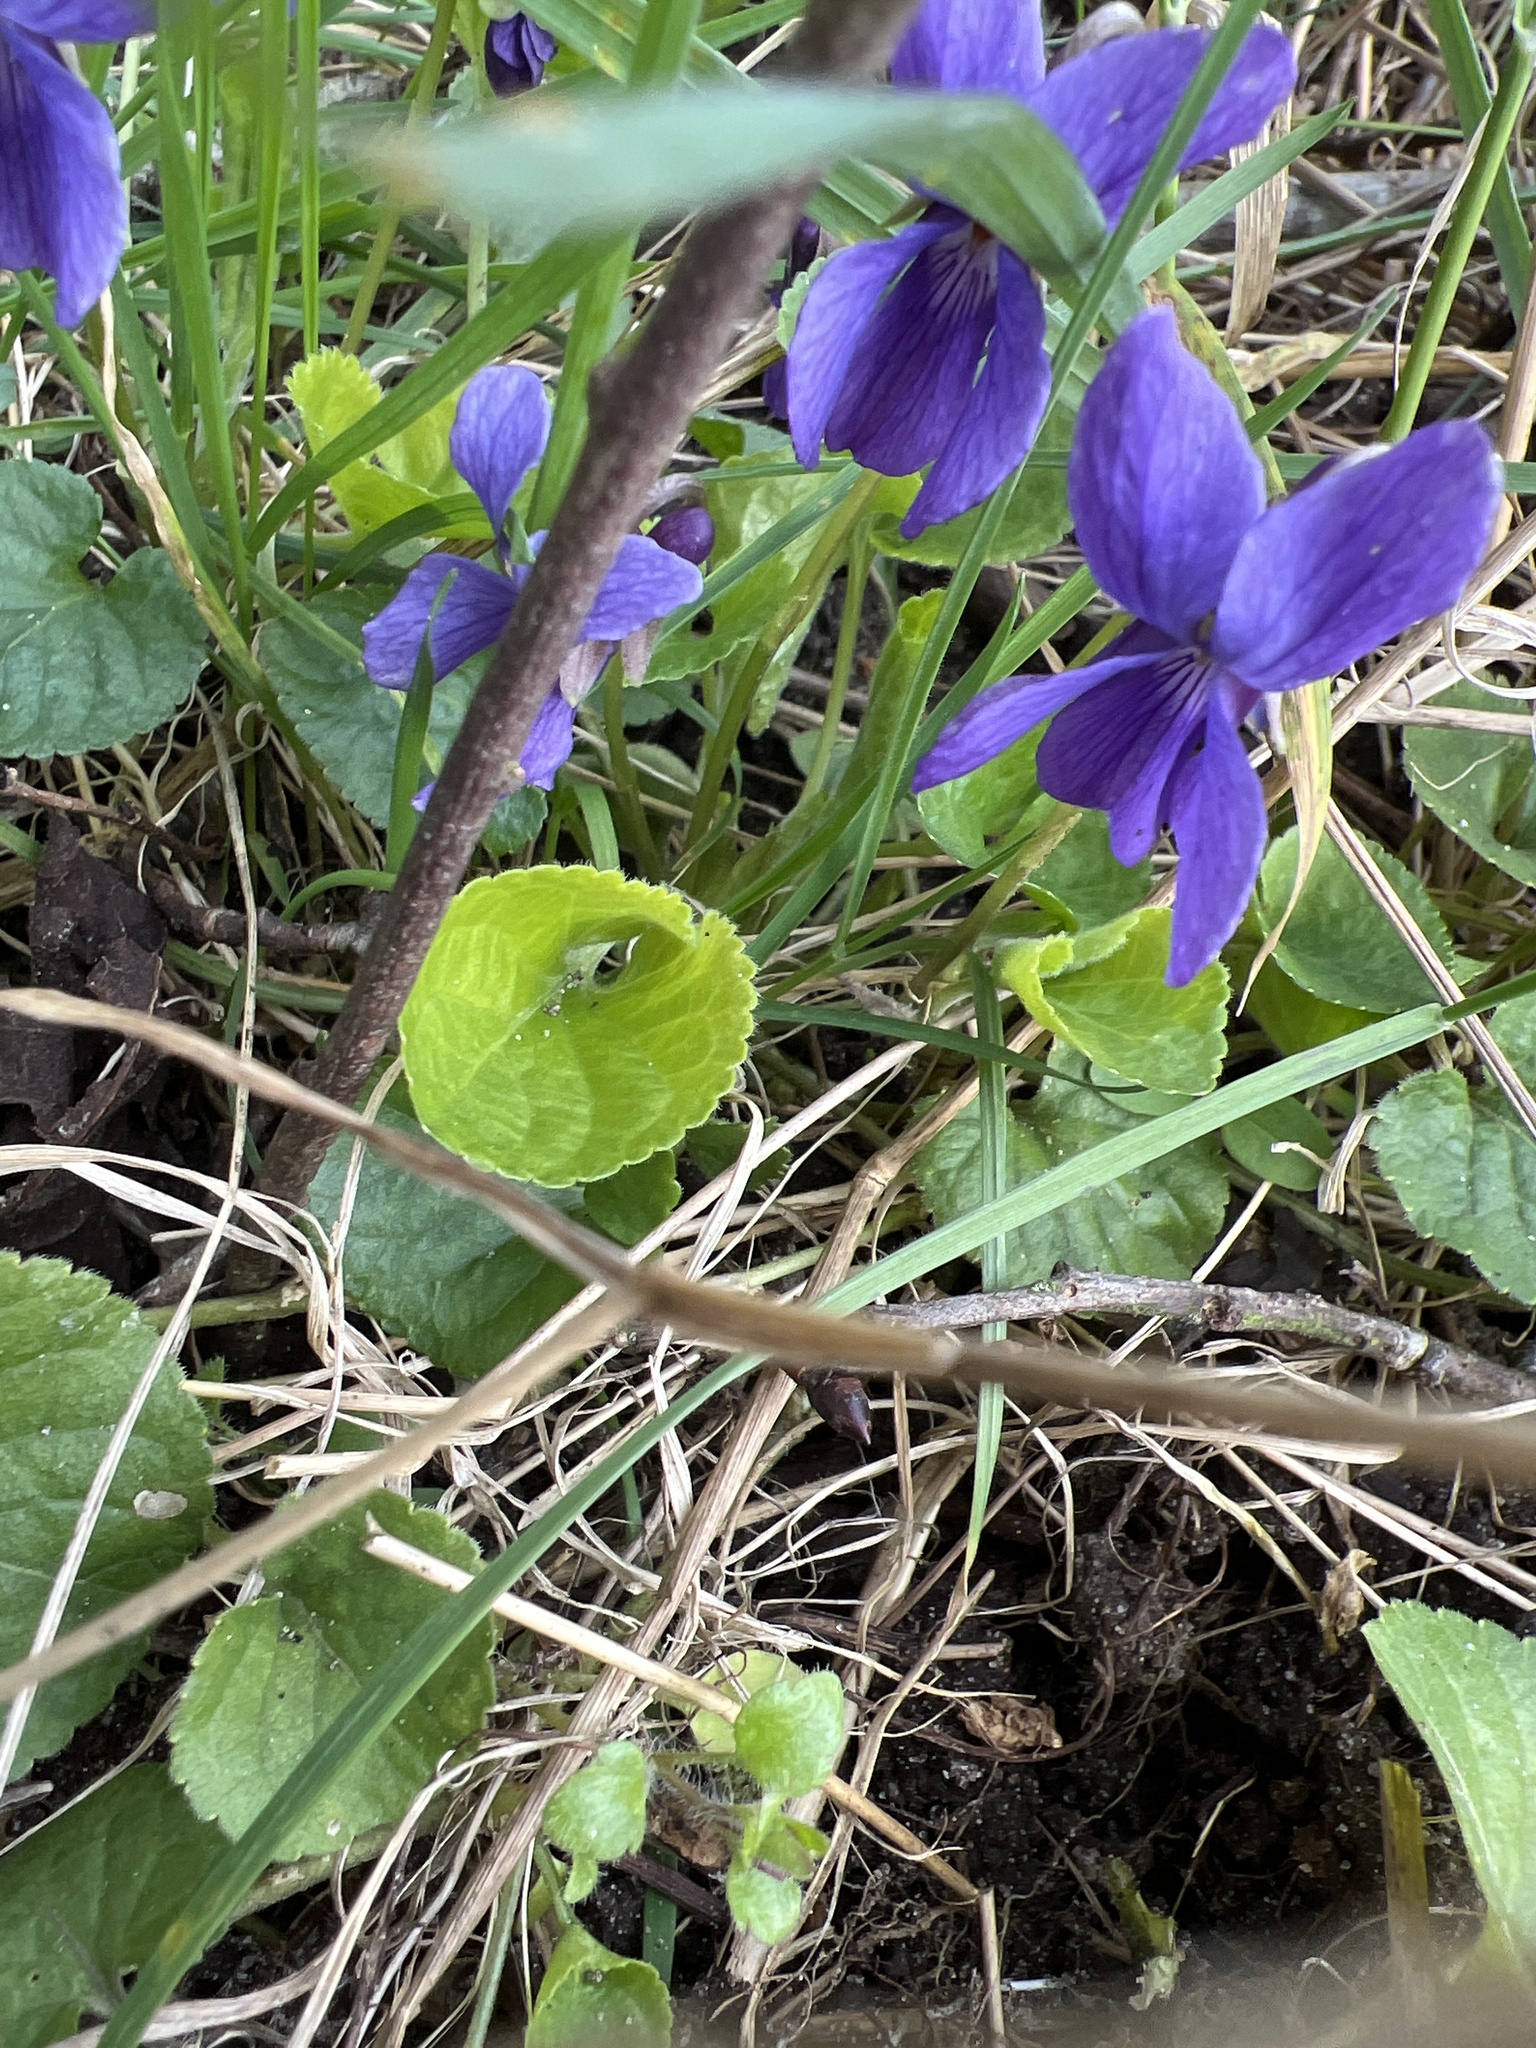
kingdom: Plantae
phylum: Tracheophyta
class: Magnoliopsida
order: Malpighiales
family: Violaceae
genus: Viola
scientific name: Viola odorata
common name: Sweet violet
